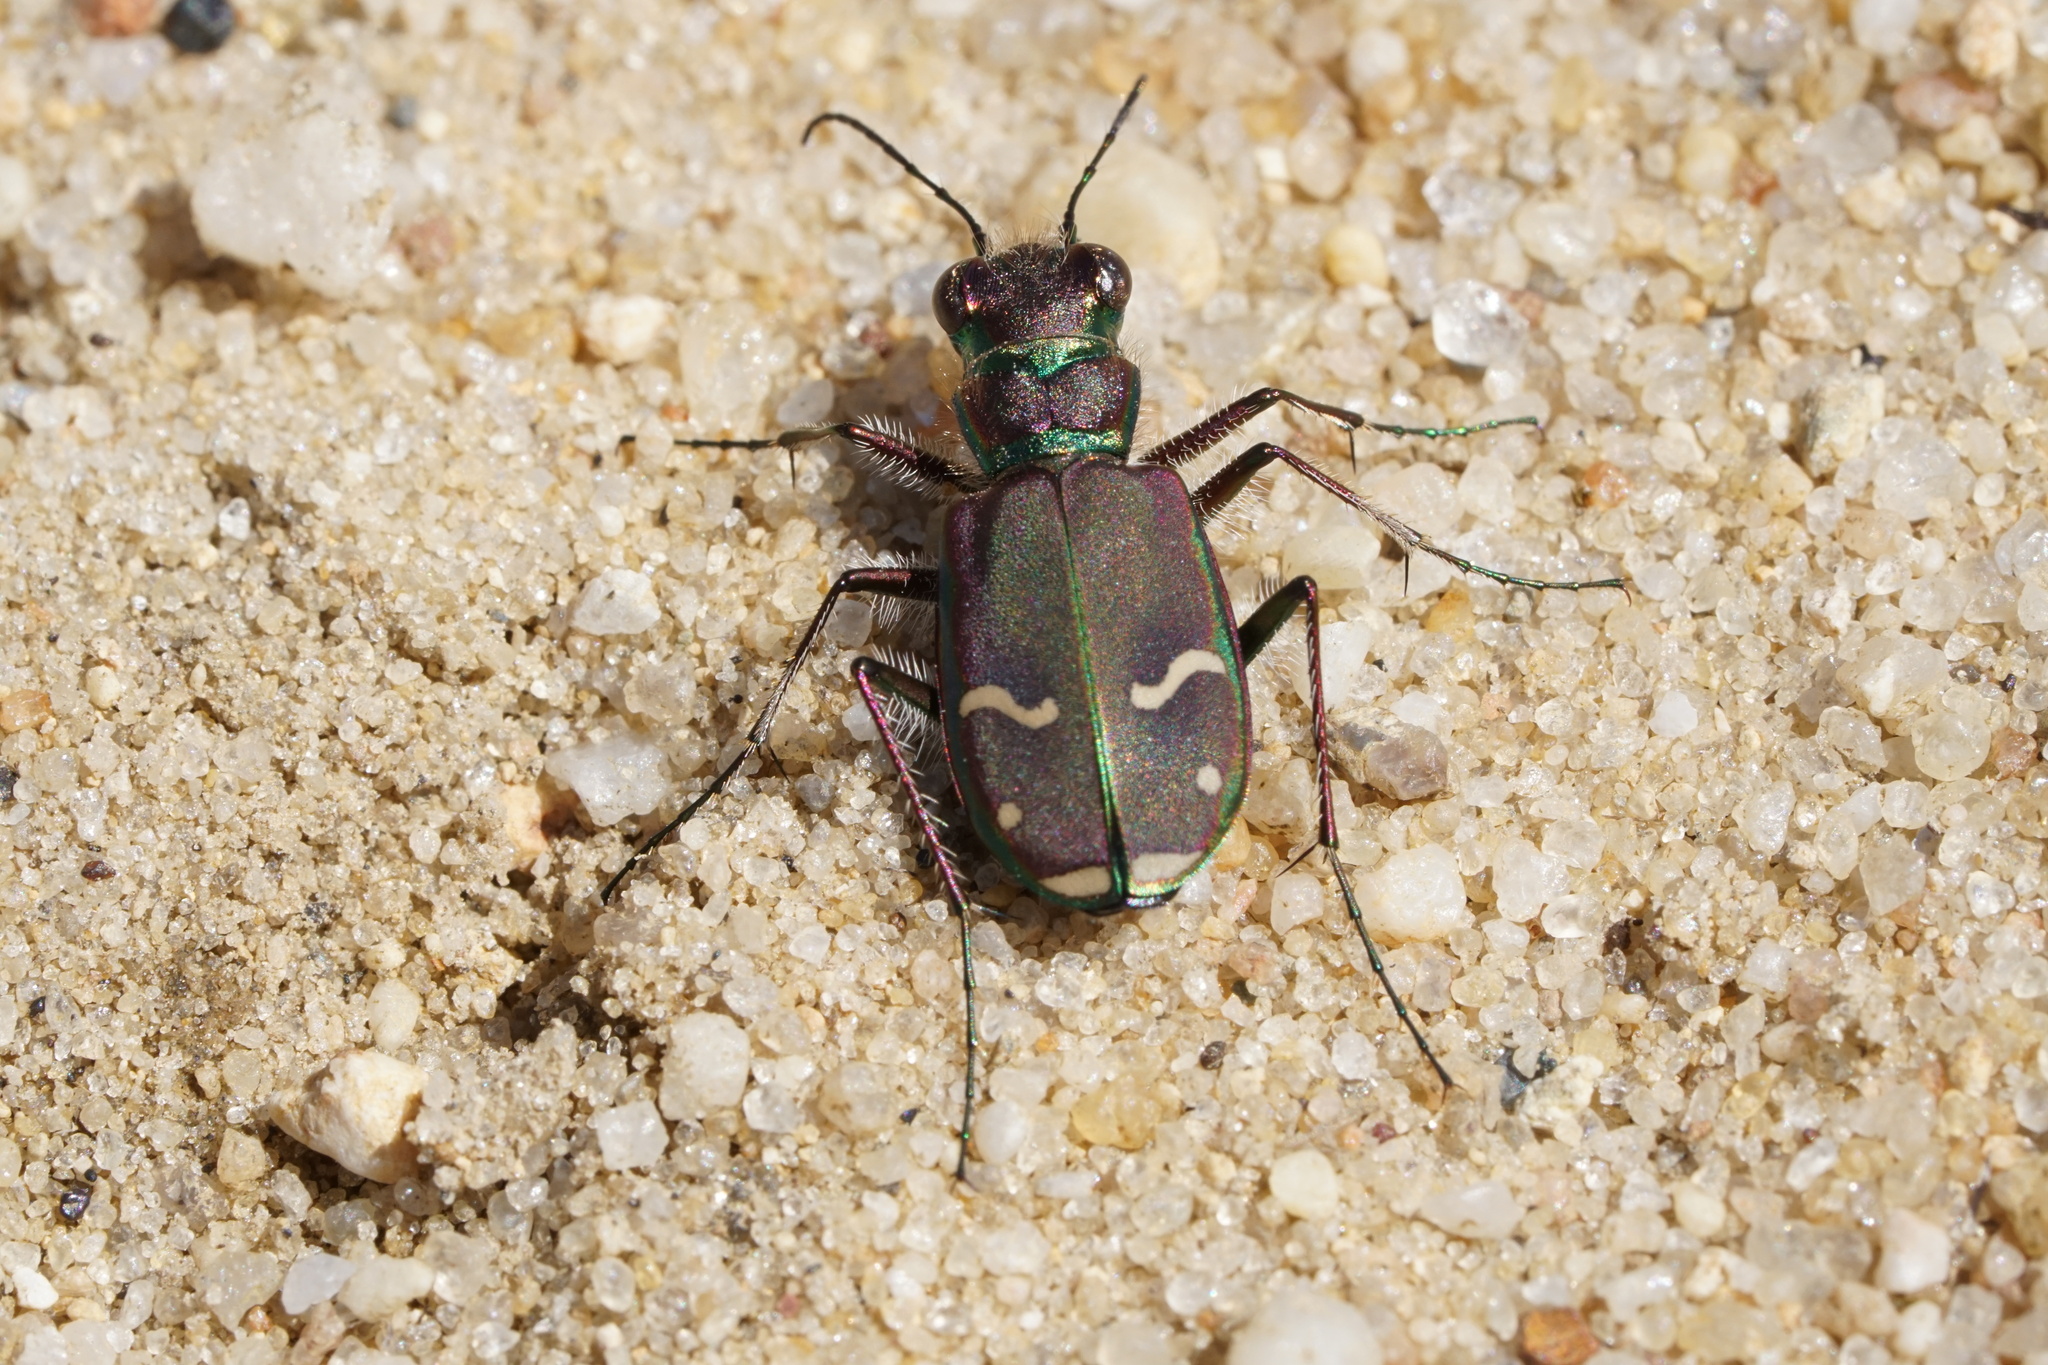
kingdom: Animalia
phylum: Arthropoda
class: Insecta
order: Coleoptera
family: Carabidae
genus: Cicindela
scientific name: Cicindela purpurea
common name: Cow path tiger beetle
